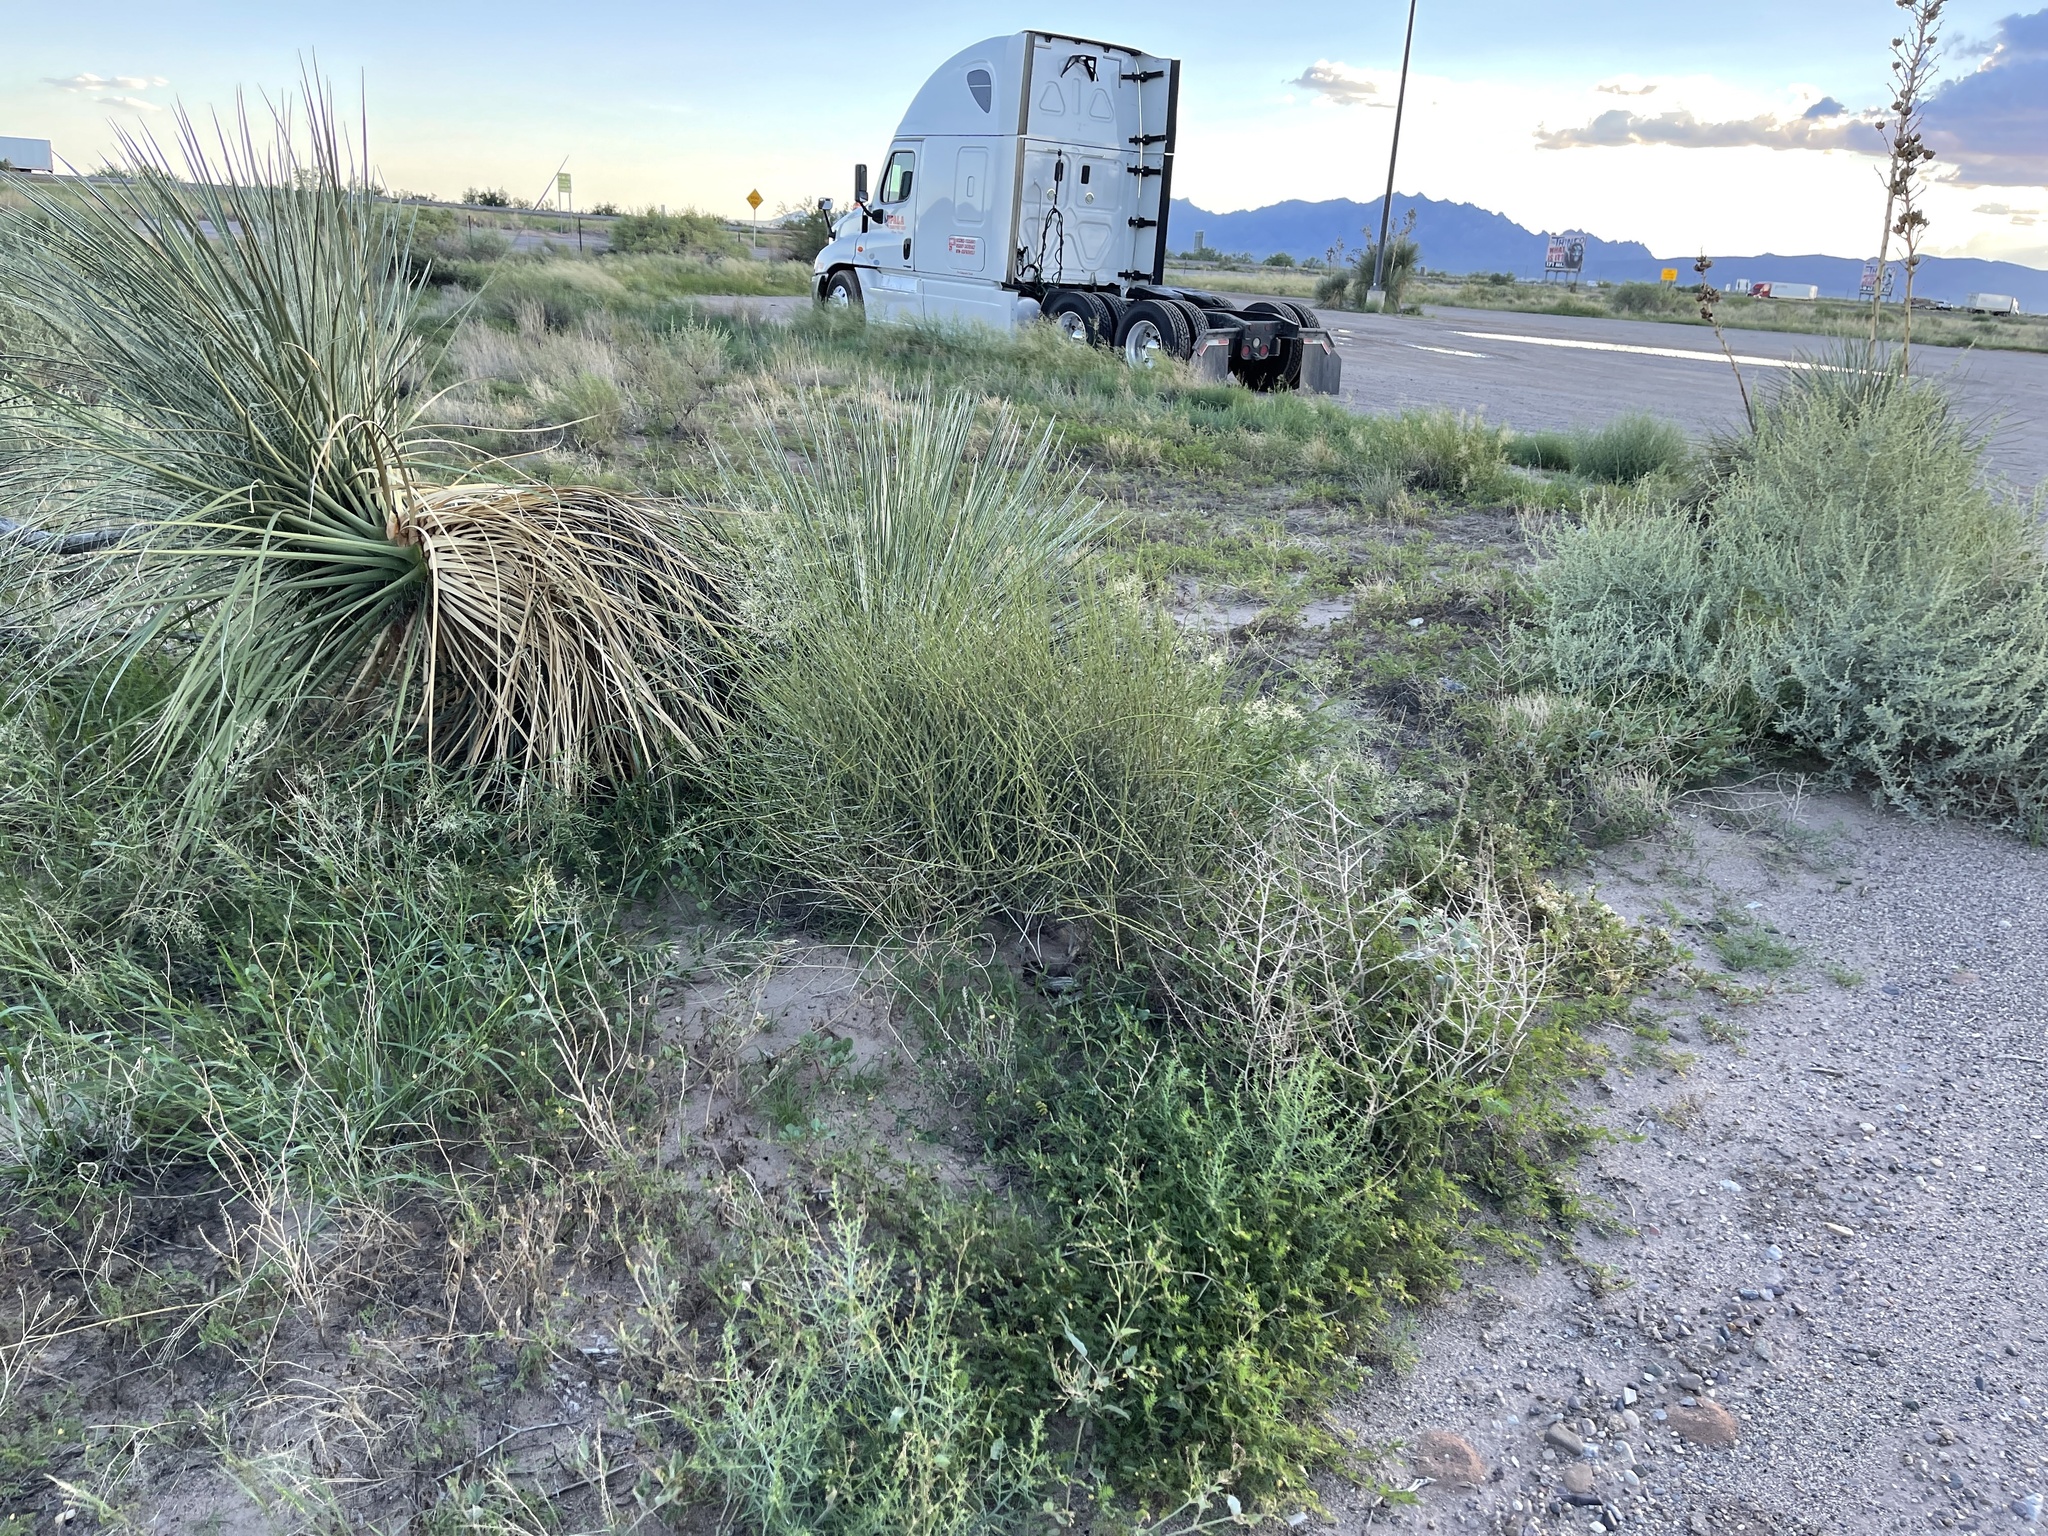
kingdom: Plantae
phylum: Tracheophyta
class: Gnetopsida
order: Ephedrales
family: Ephedraceae
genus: Ephedra
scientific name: Ephedra trifurca
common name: Mexican-tea
